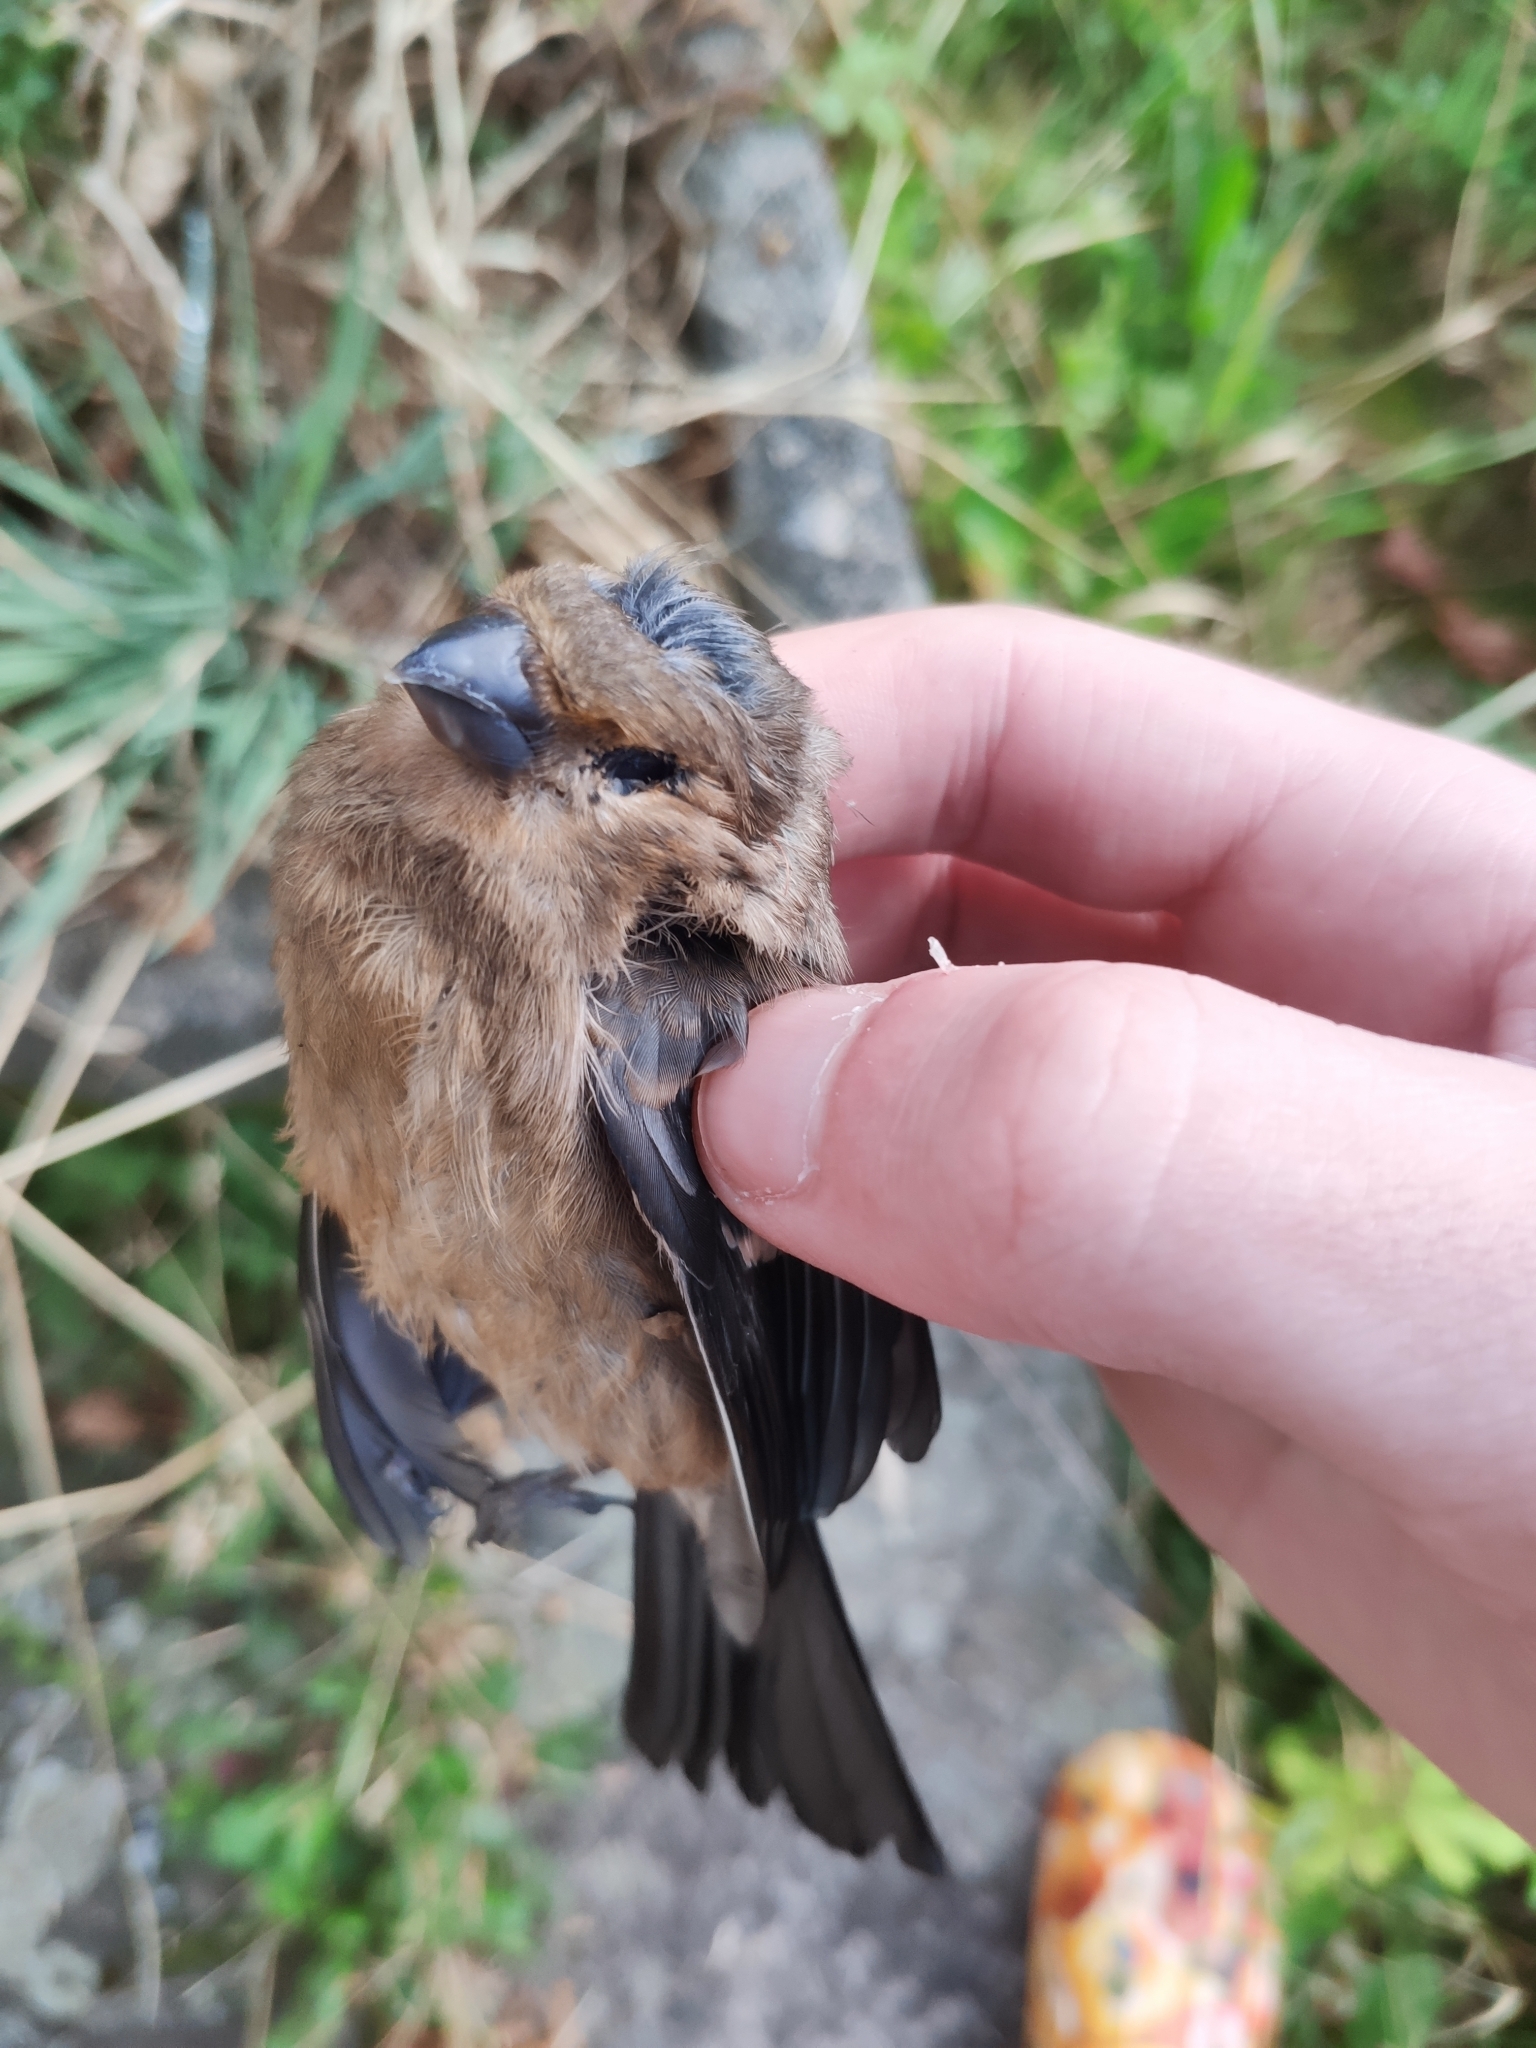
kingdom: Animalia
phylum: Chordata
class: Aves
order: Passeriformes
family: Fringillidae
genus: Pyrrhula
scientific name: Pyrrhula pyrrhula
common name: Eurasian bullfinch
